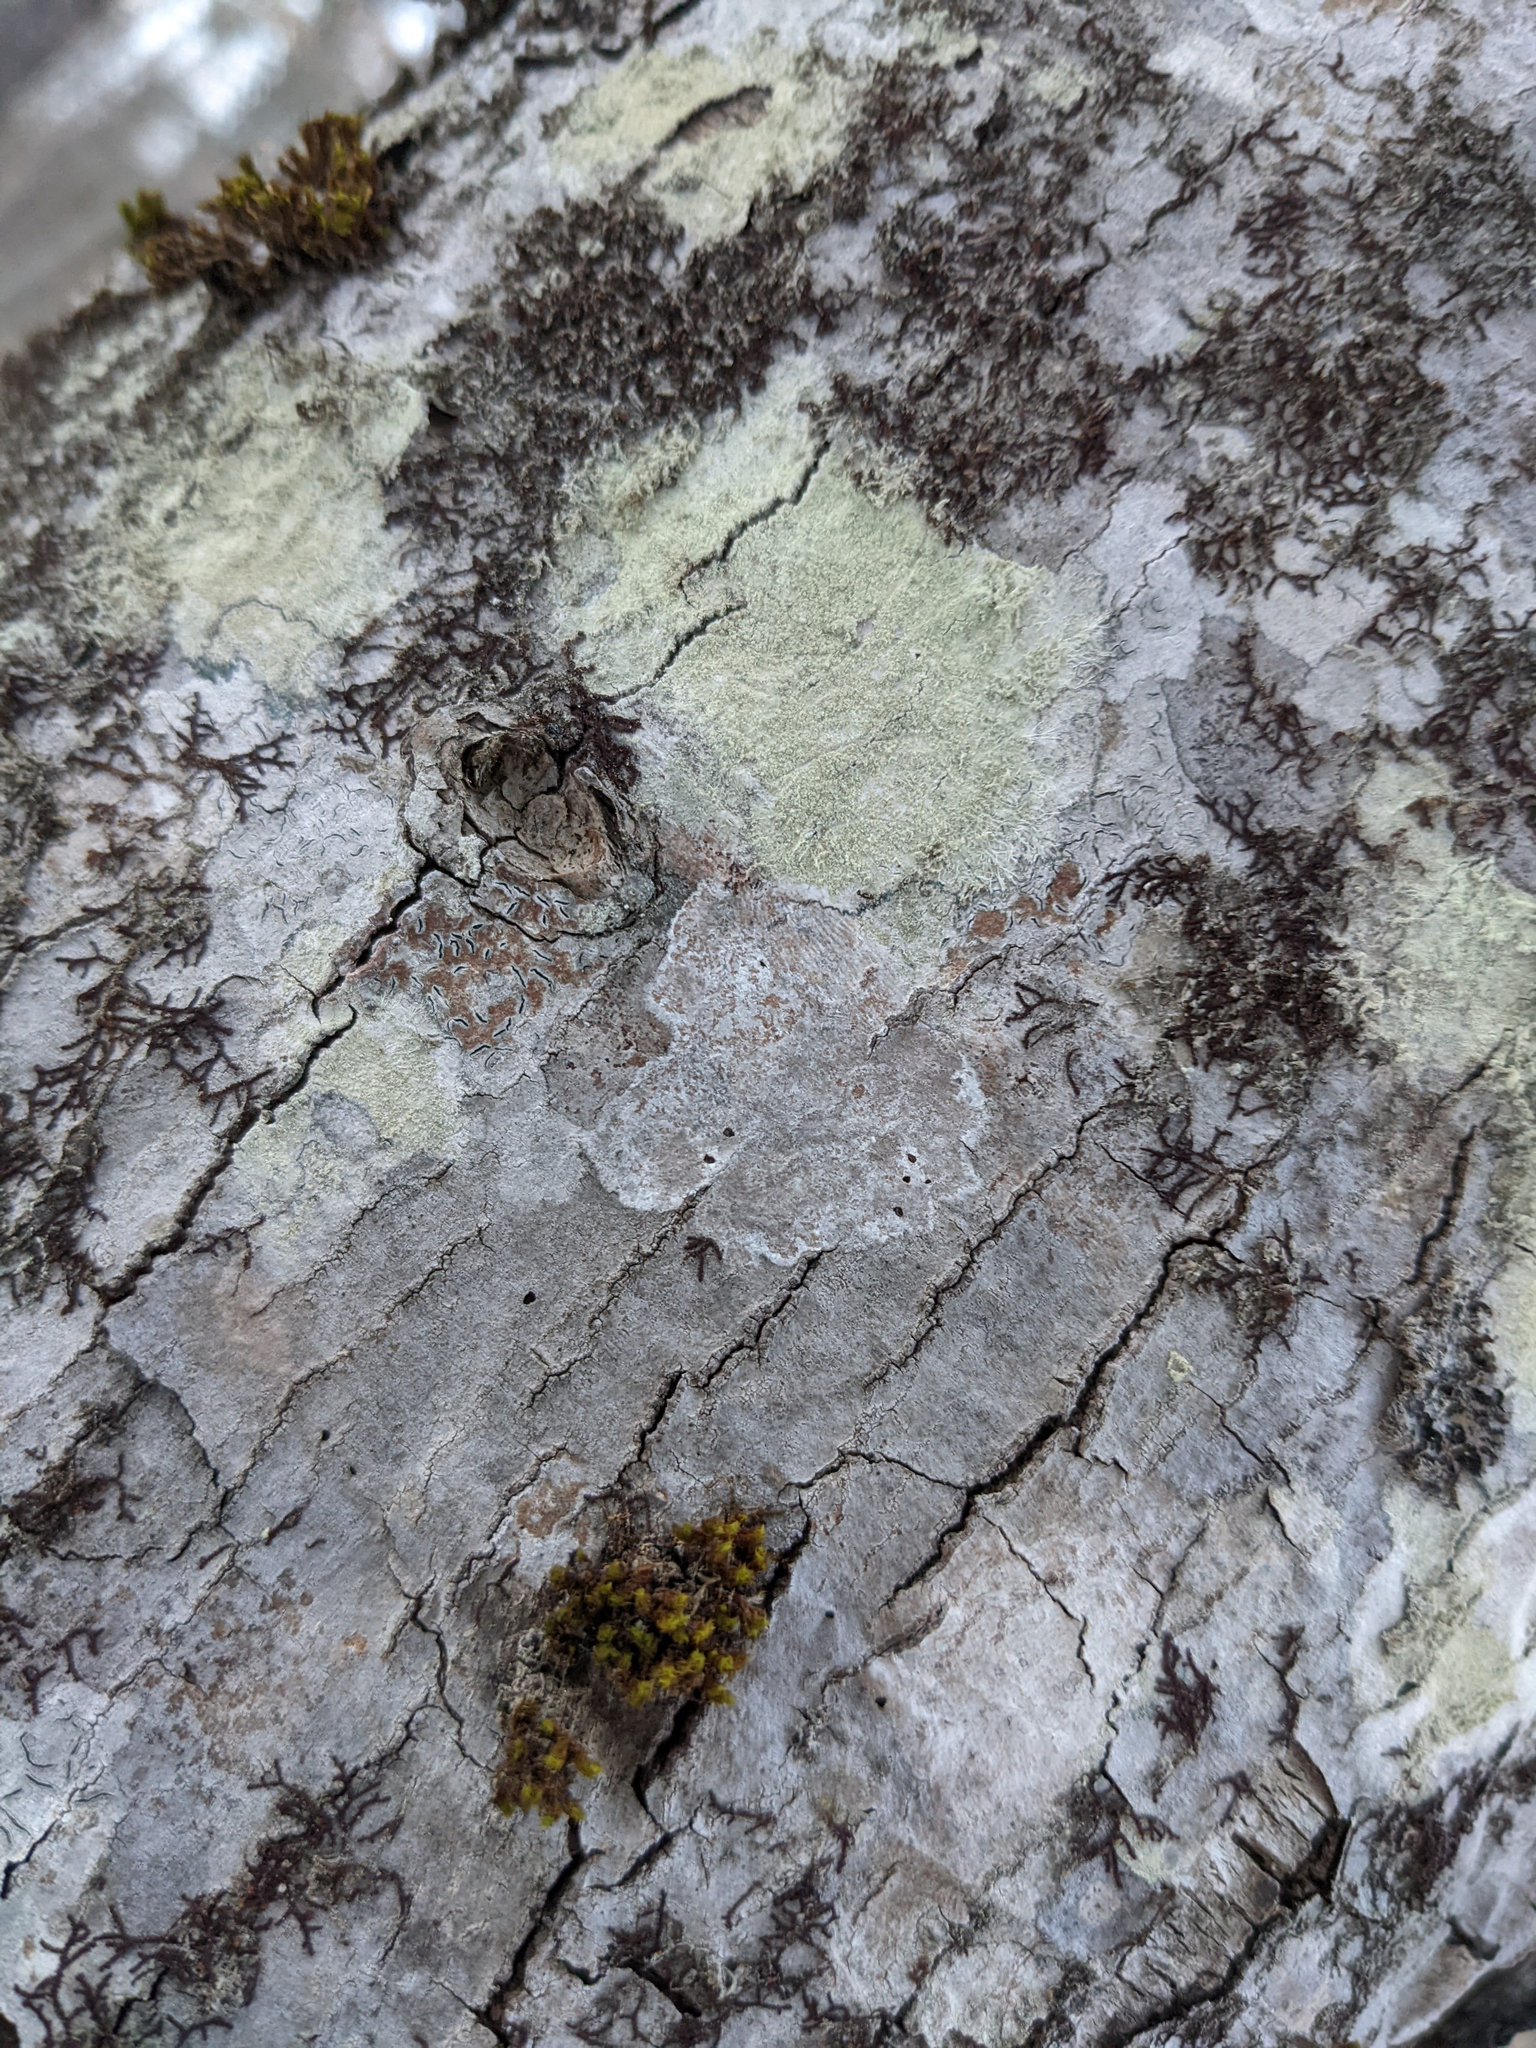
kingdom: Plantae
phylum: Bryophyta
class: Bryopsida
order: Orthotrichales
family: Orthotrichaceae
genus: Ulota
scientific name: Ulota crispa
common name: Crisped pincushion moss
